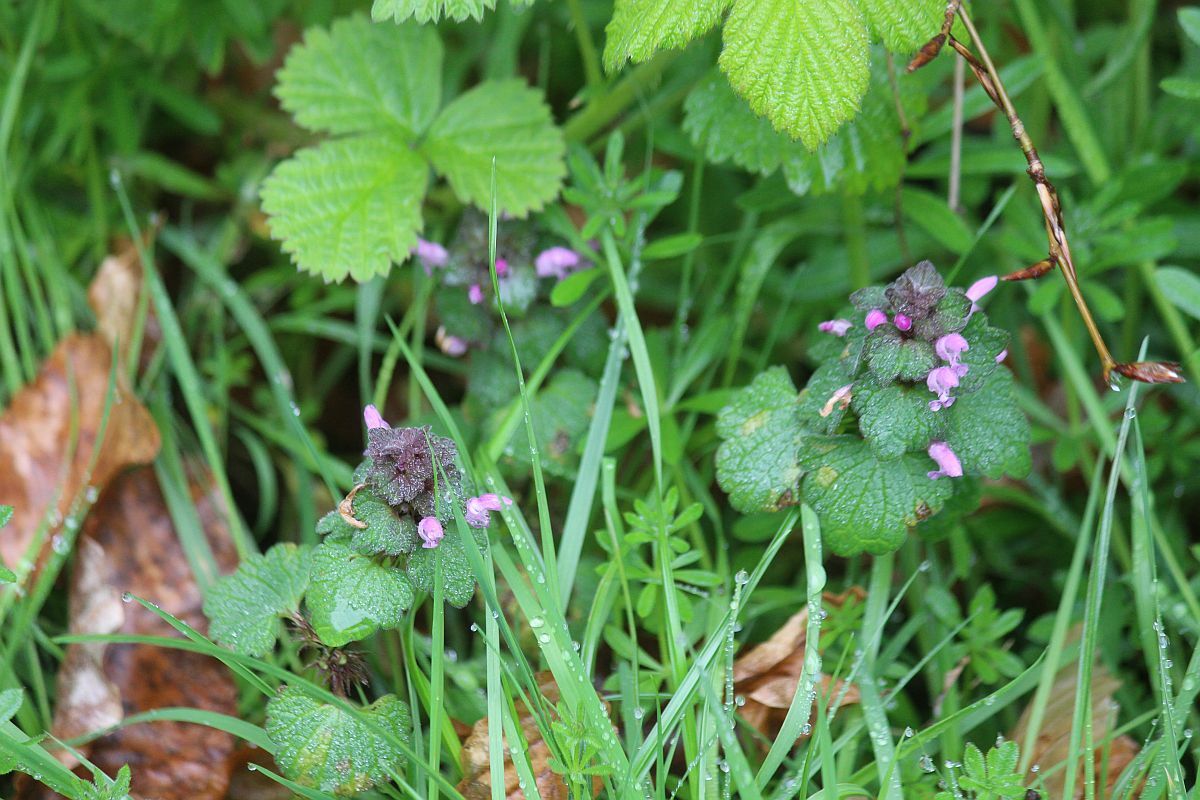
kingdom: Plantae
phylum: Tracheophyta
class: Magnoliopsida
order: Lamiales
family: Lamiaceae
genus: Lamium
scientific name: Lamium purpureum
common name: Red dead-nettle
